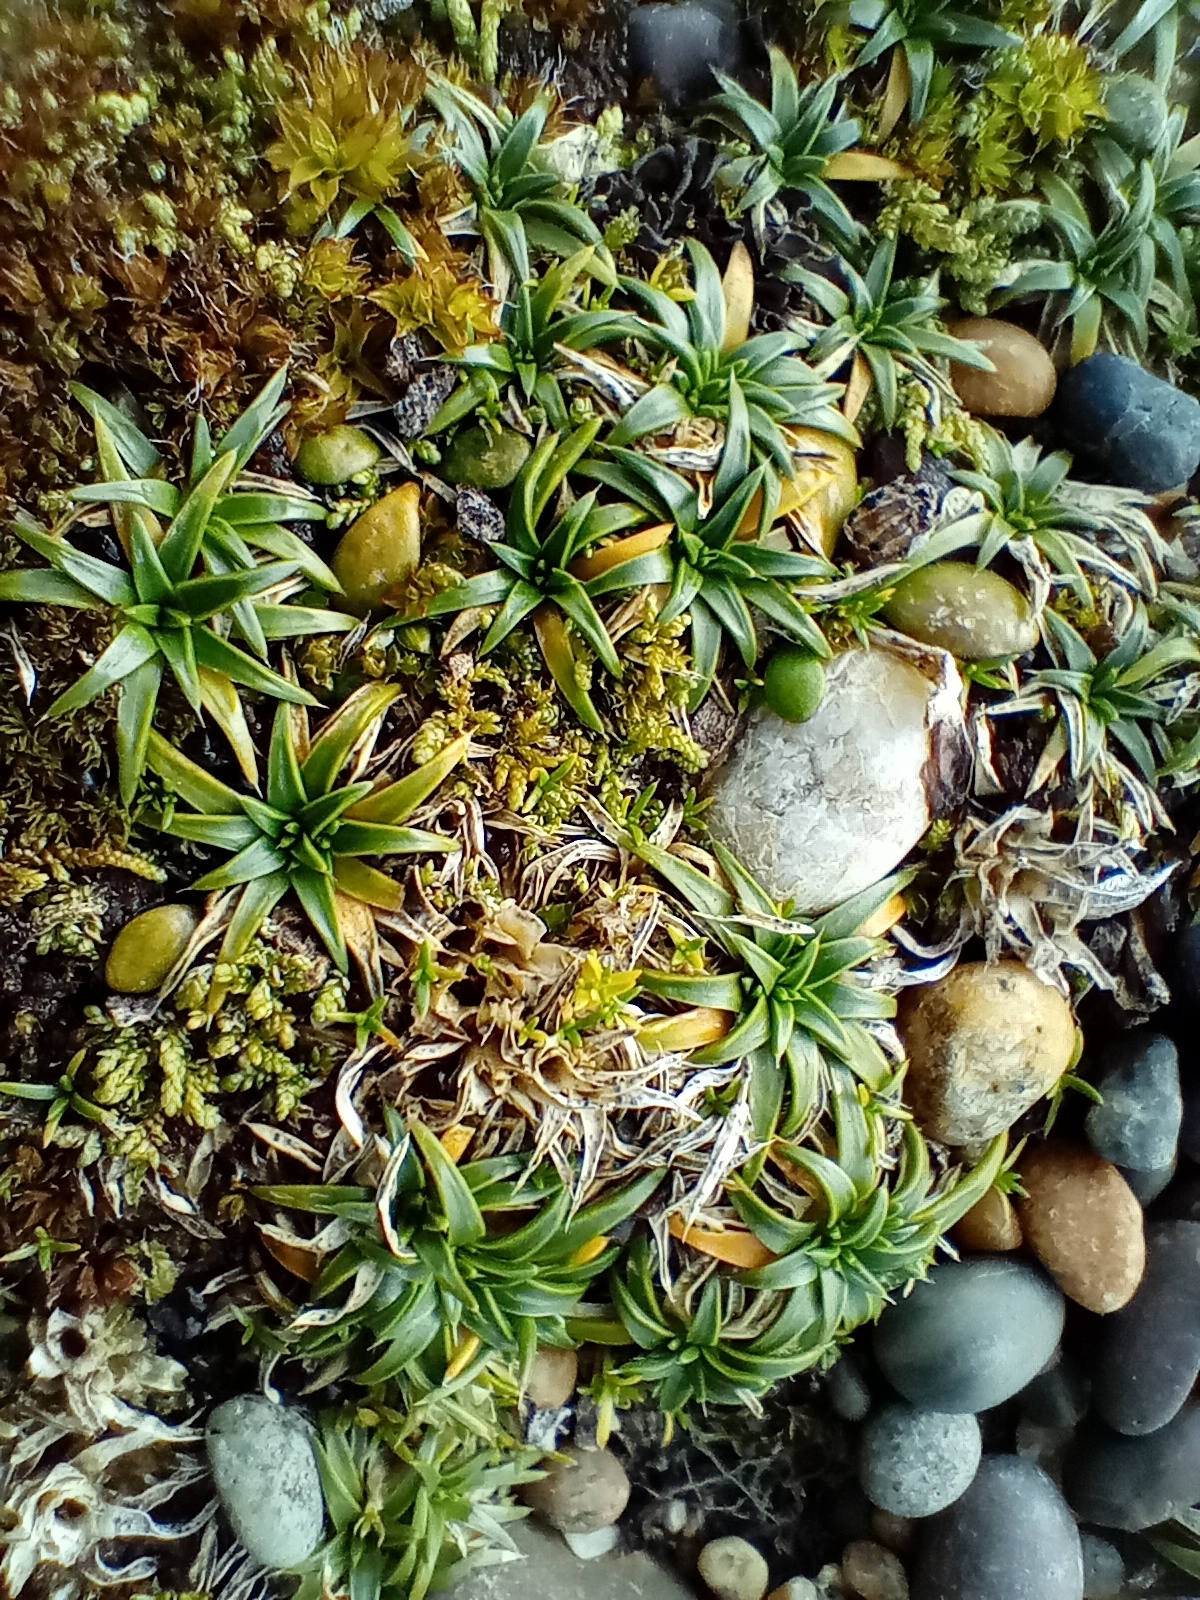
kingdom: Plantae
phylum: Tracheophyta
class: Magnoliopsida
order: Caryophyllales
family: Caryophyllaceae
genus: Colobanthus
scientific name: Colobanthus muelleri
